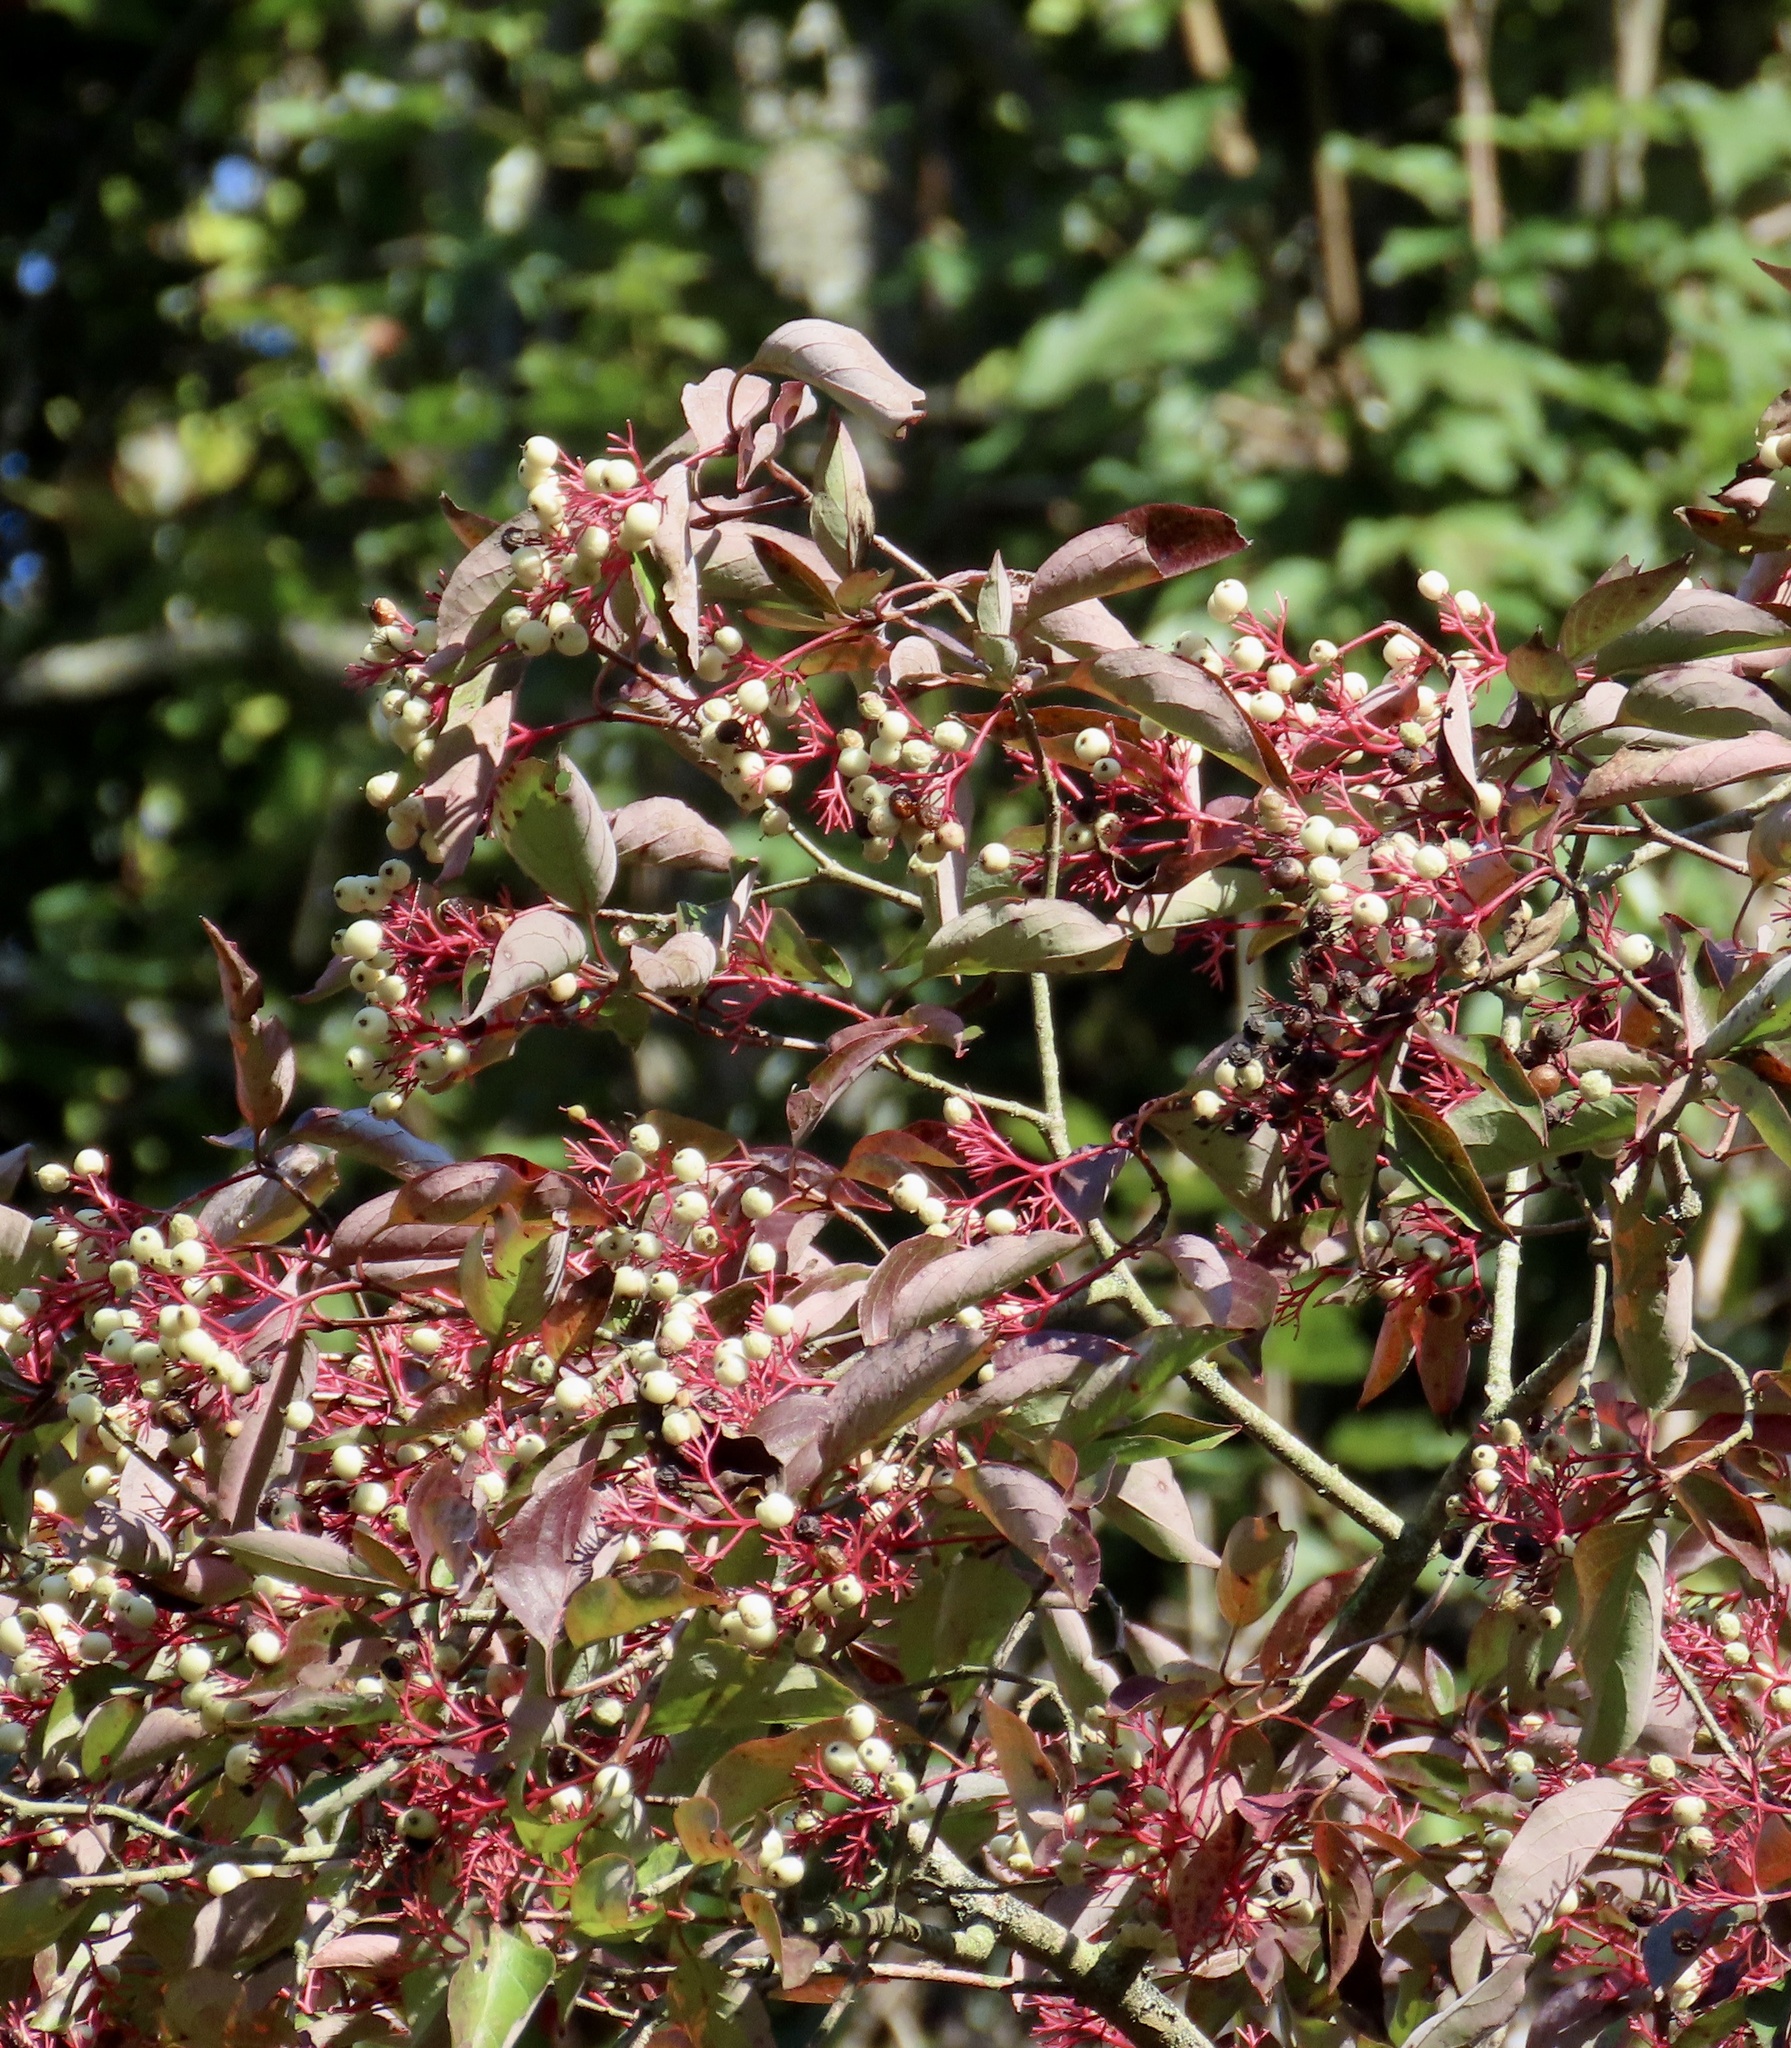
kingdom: Plantae
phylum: Tracheophyta
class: Magnoliopsida
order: Cornales
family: Cornaceae
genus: Cornus
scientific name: Cornus racemosa
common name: Panicled dogwood
